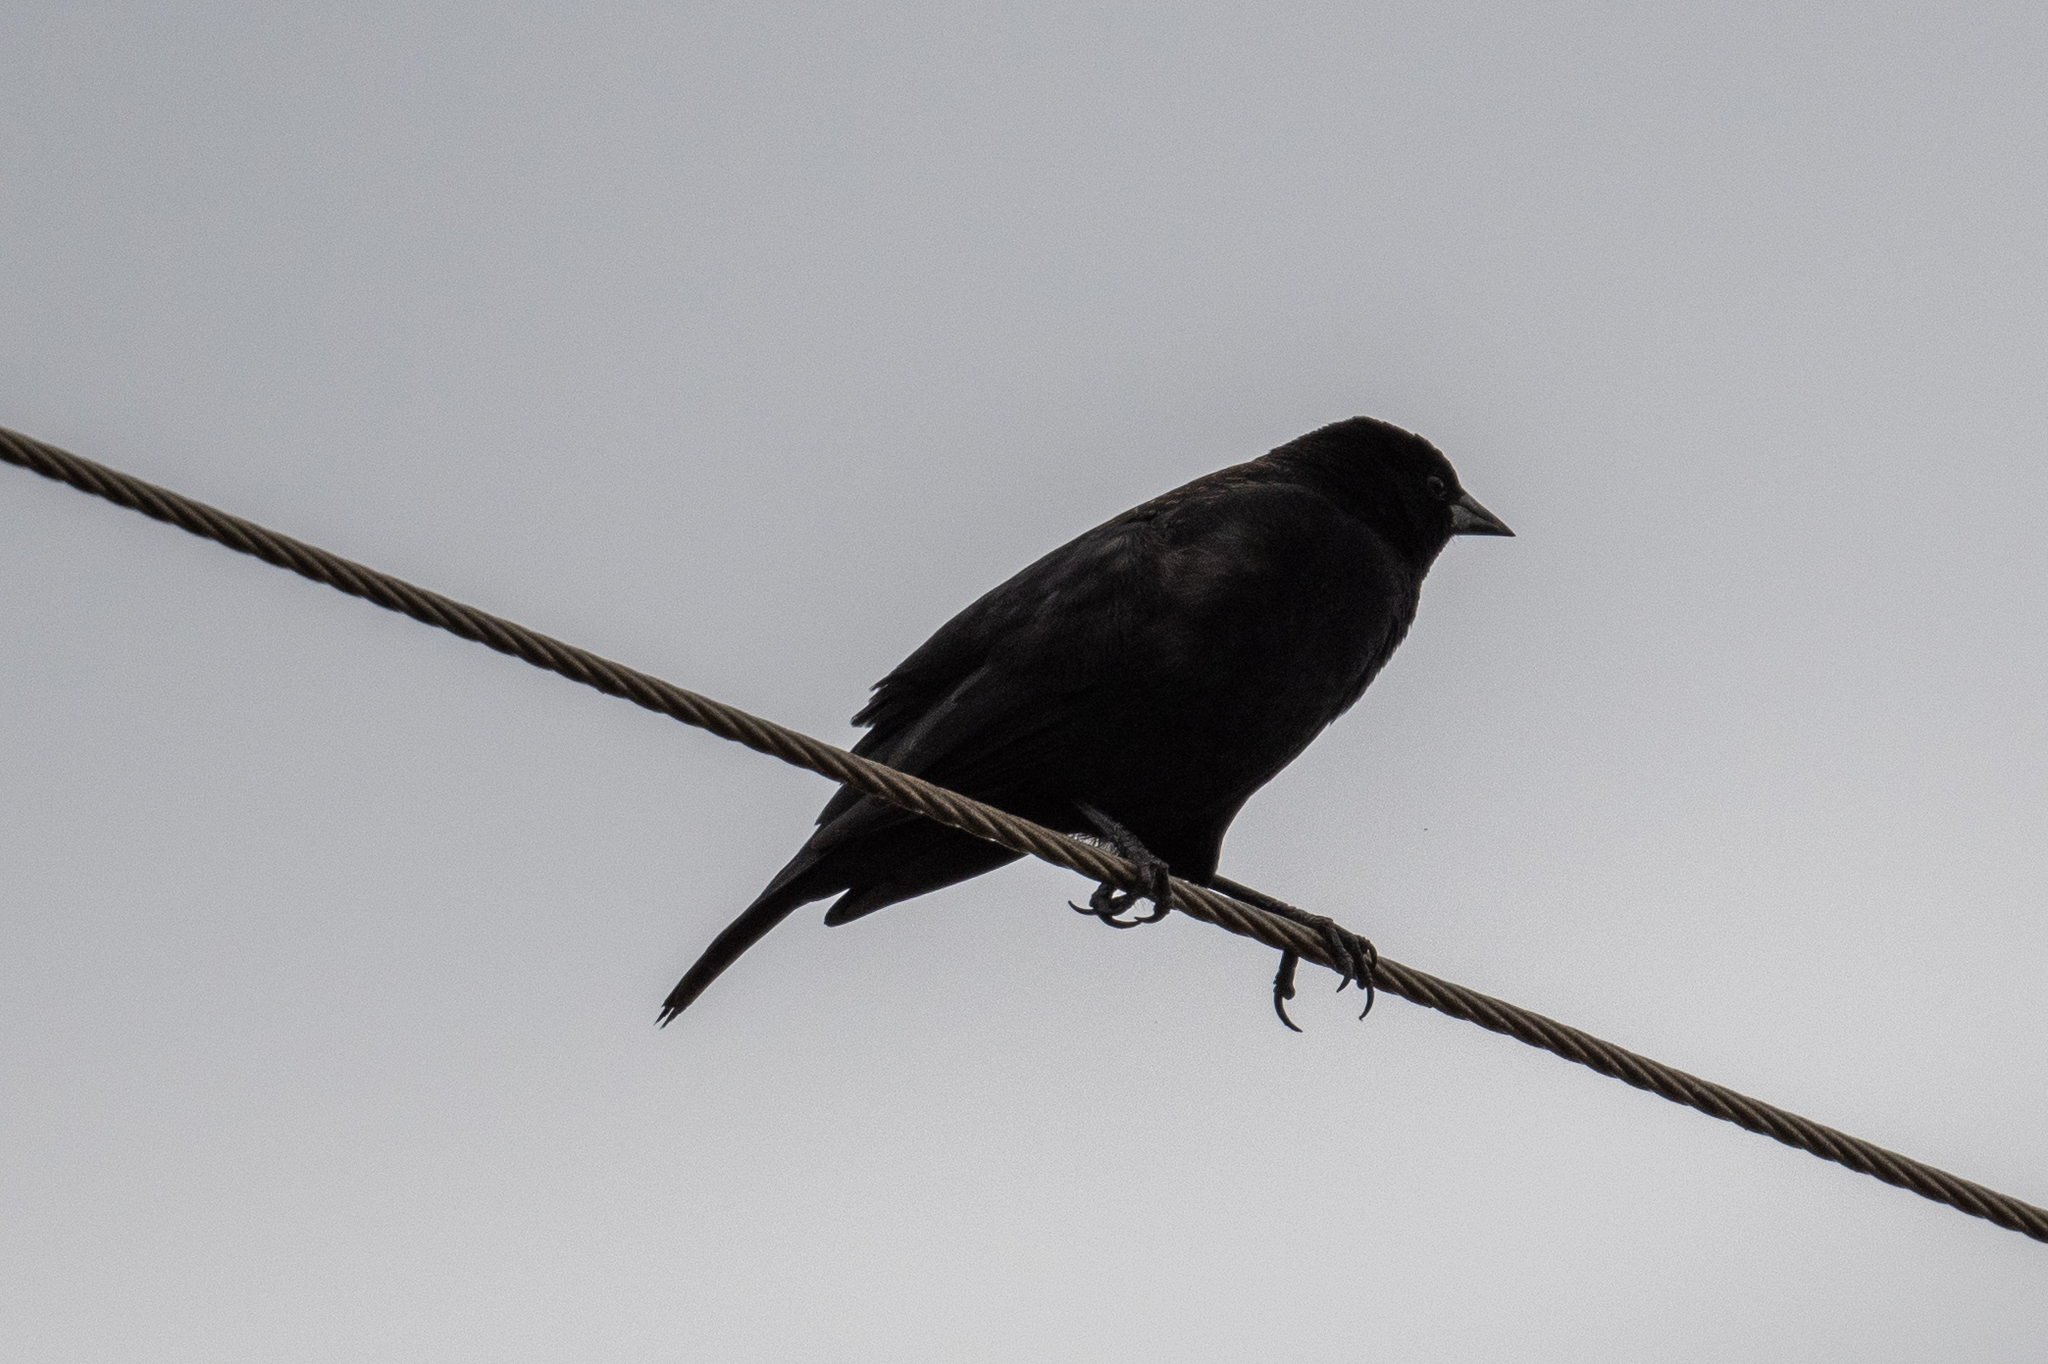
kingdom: Animalia
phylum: Chordata
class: Aves
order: Passeriformes
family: Icteridae
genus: Molothrus
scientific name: Molothrus ater
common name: Brown-headed cowbird
